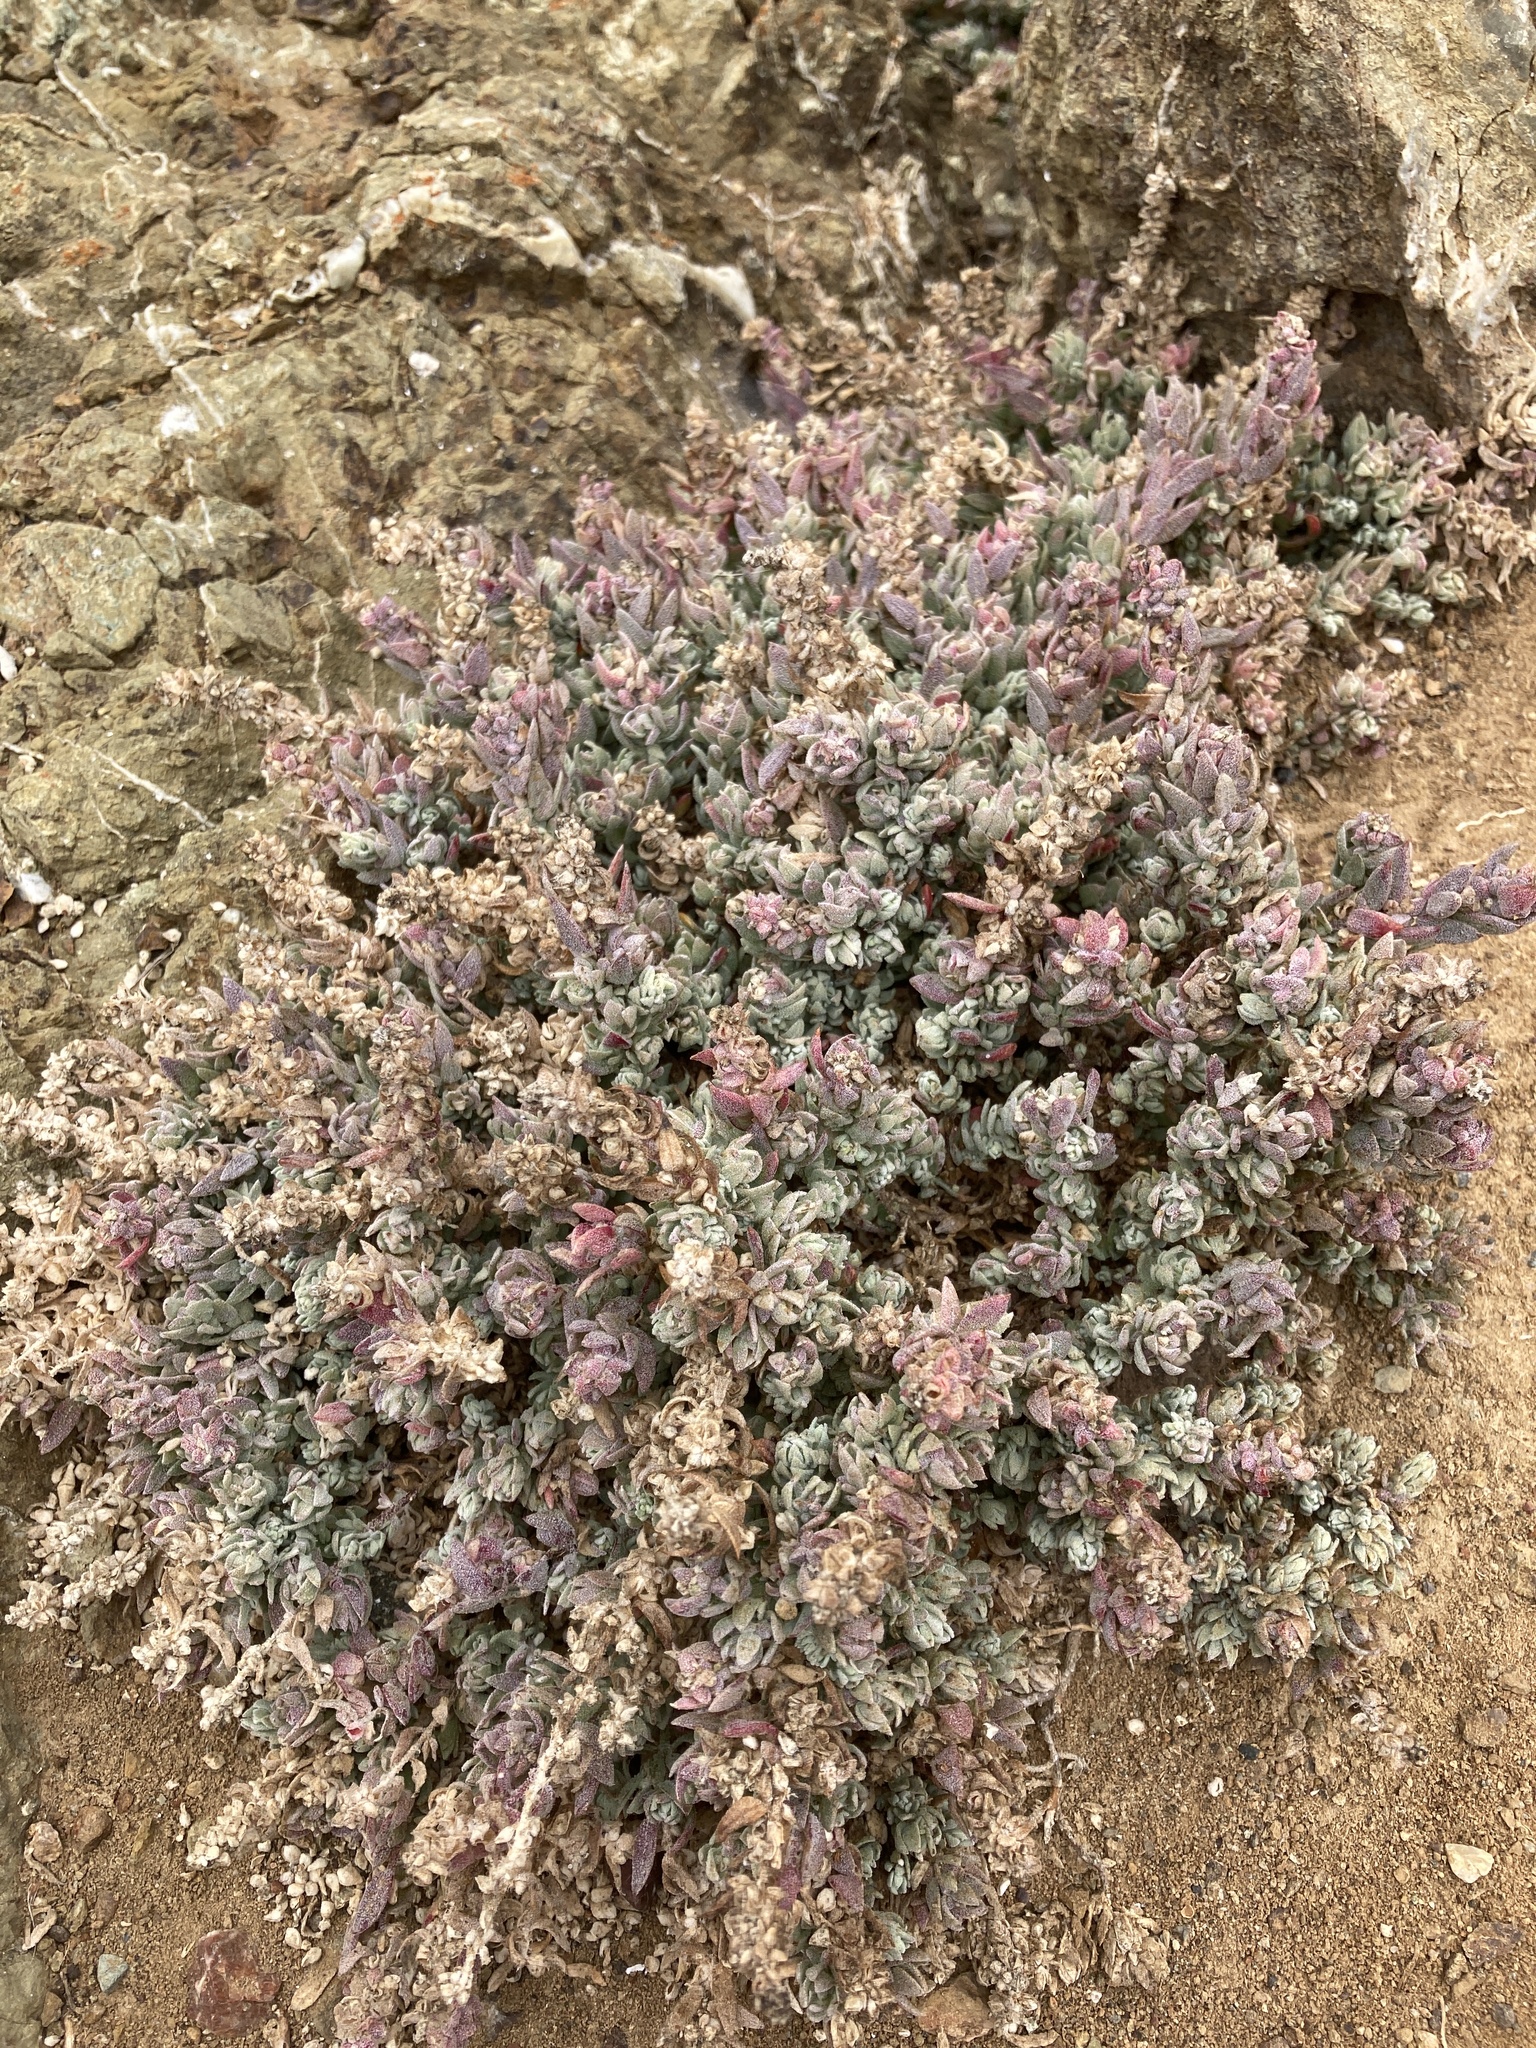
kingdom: Plantae
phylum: Tracheophyta
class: Magnoliopsida
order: Caryophyllales
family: Amaranthaceae
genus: Extriplex
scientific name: Extriplex californica
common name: California saltbush
